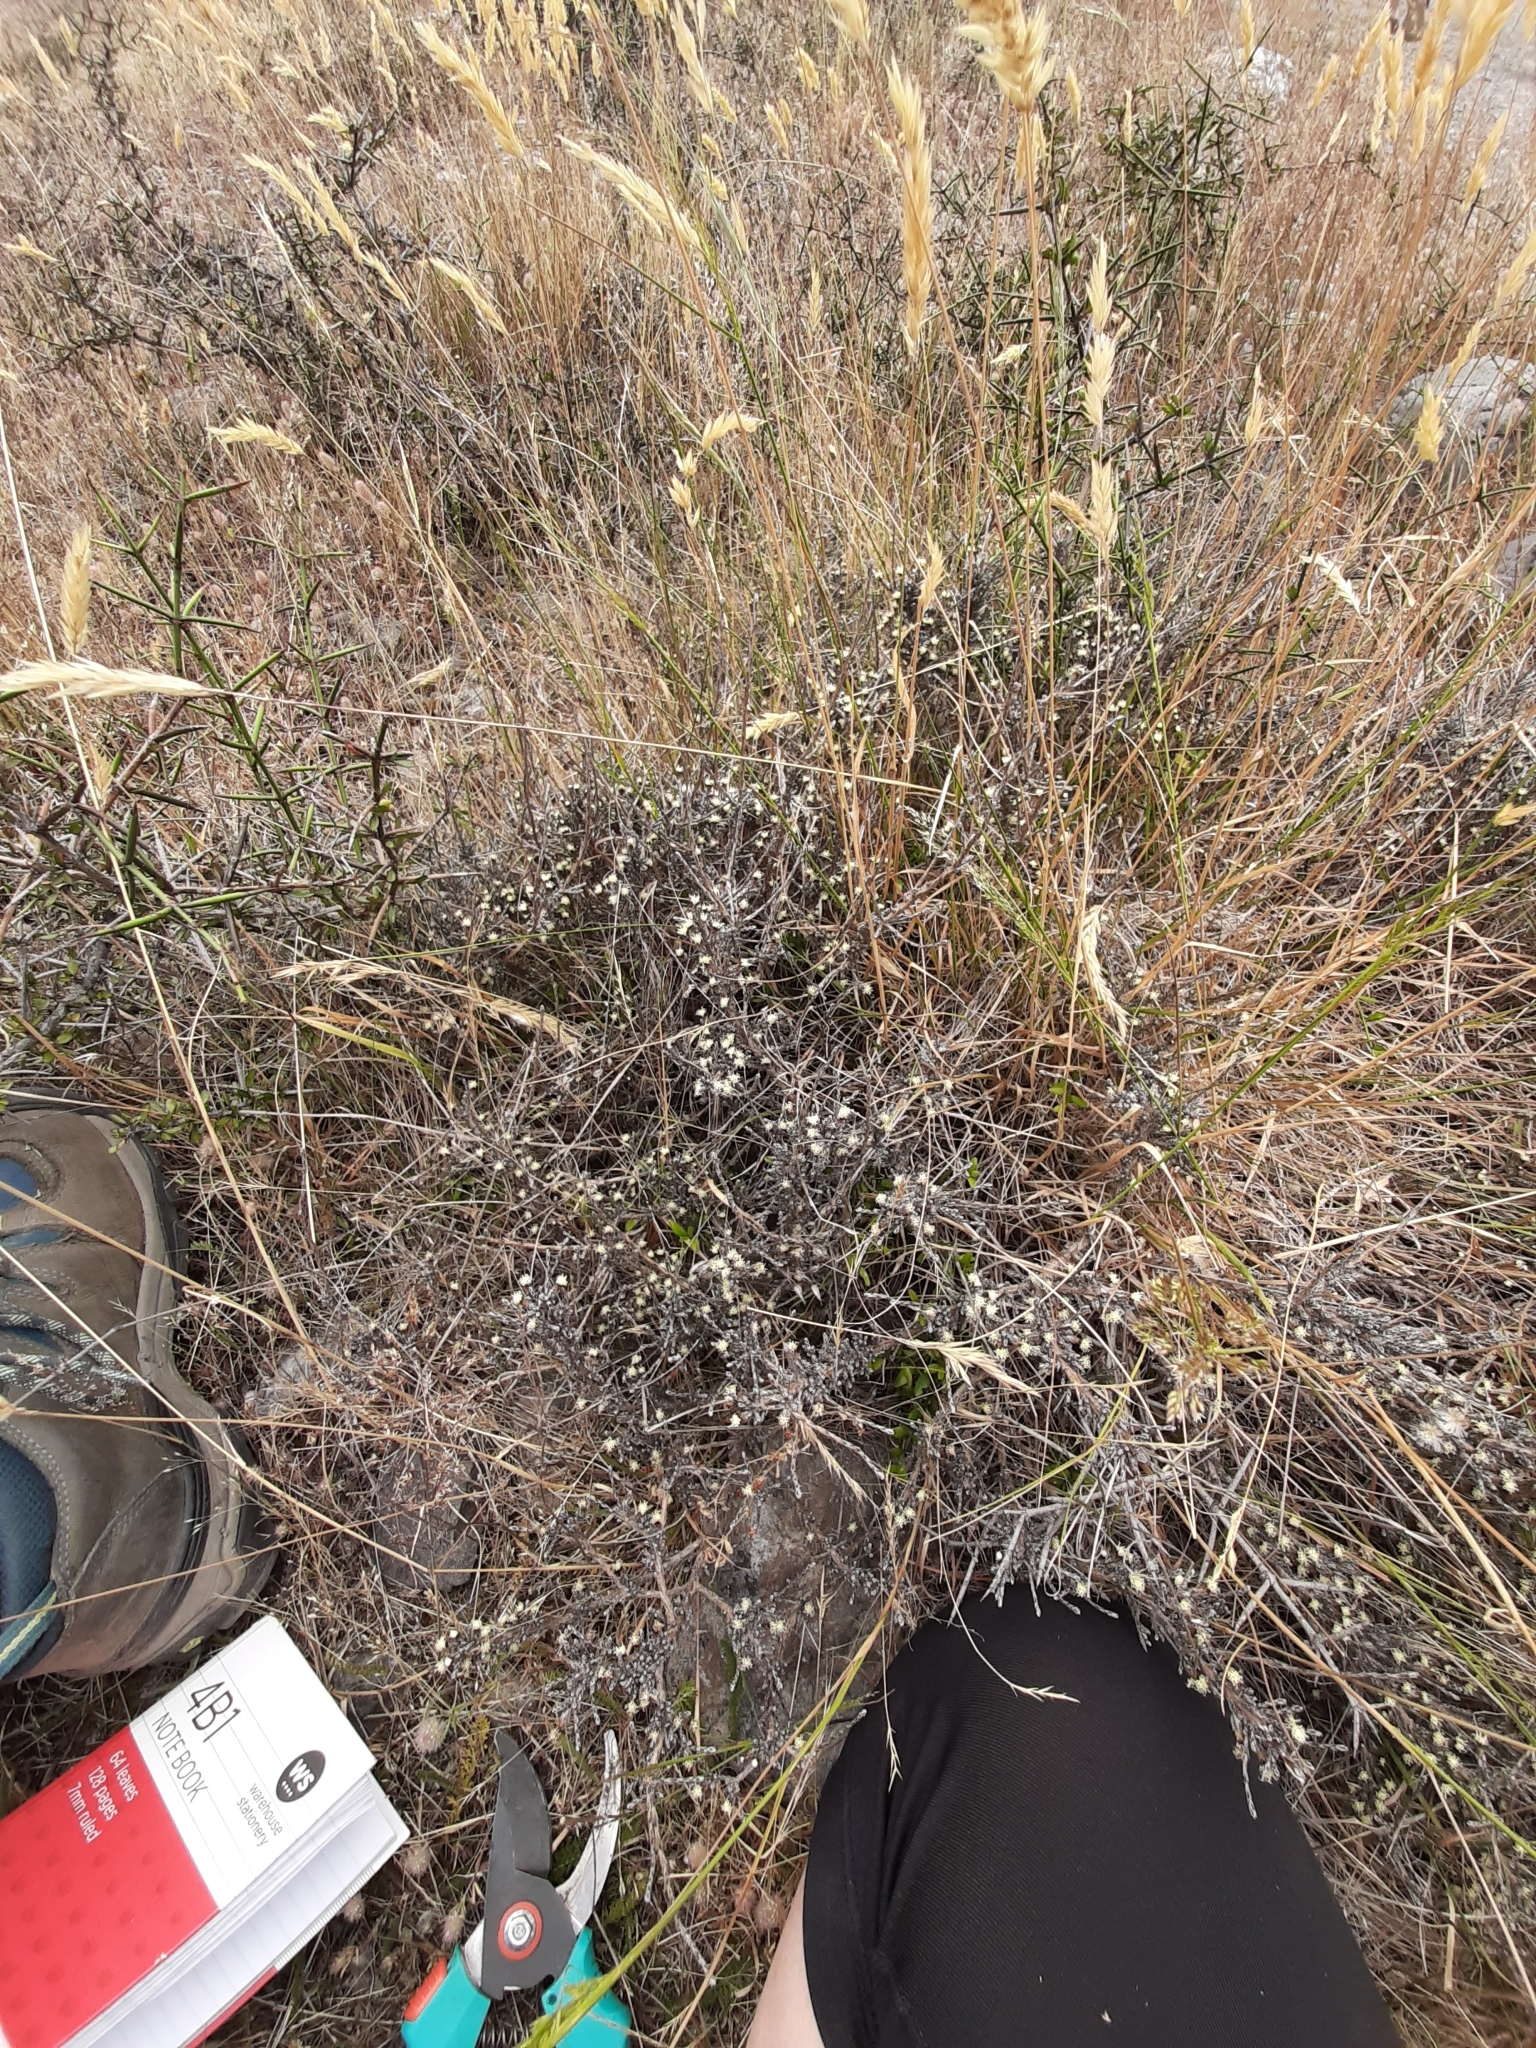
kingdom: Plantae
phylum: Tracheophyta
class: Magnoliopsida
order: Asterales
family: Asteraceae
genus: Ozothamnus
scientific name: Ozothamnus depressus
